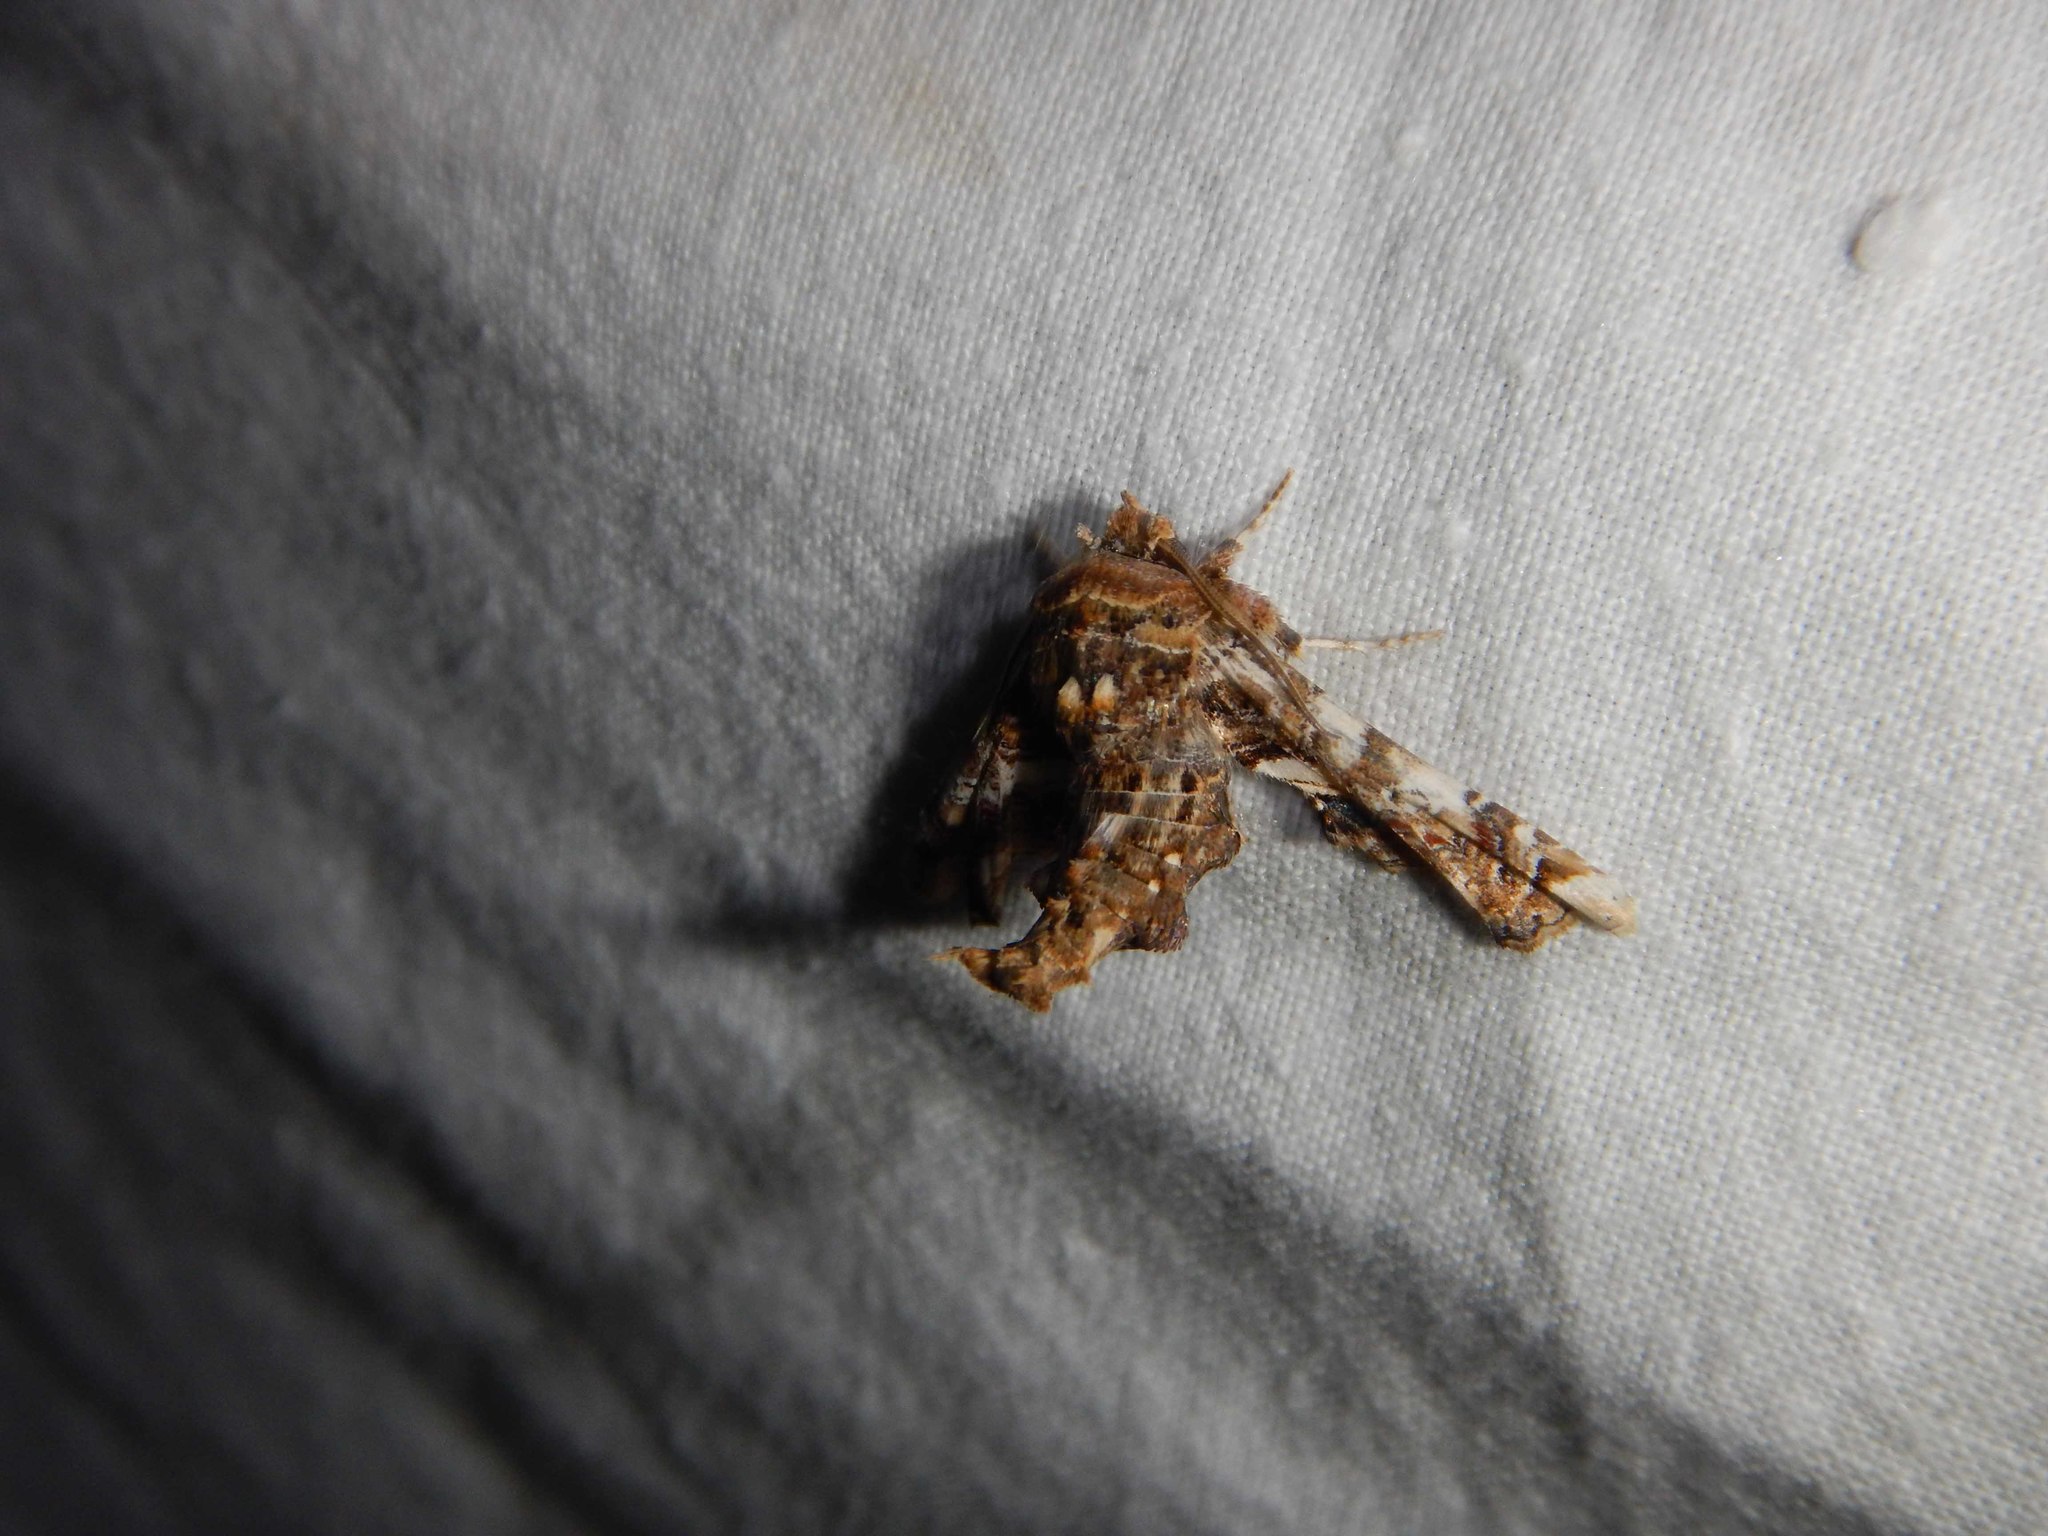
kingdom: Animalia
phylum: Arthropoda
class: Insecta
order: Lepidoptera
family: Euteliidae
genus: Eutelia
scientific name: Eutelia adulatrix
